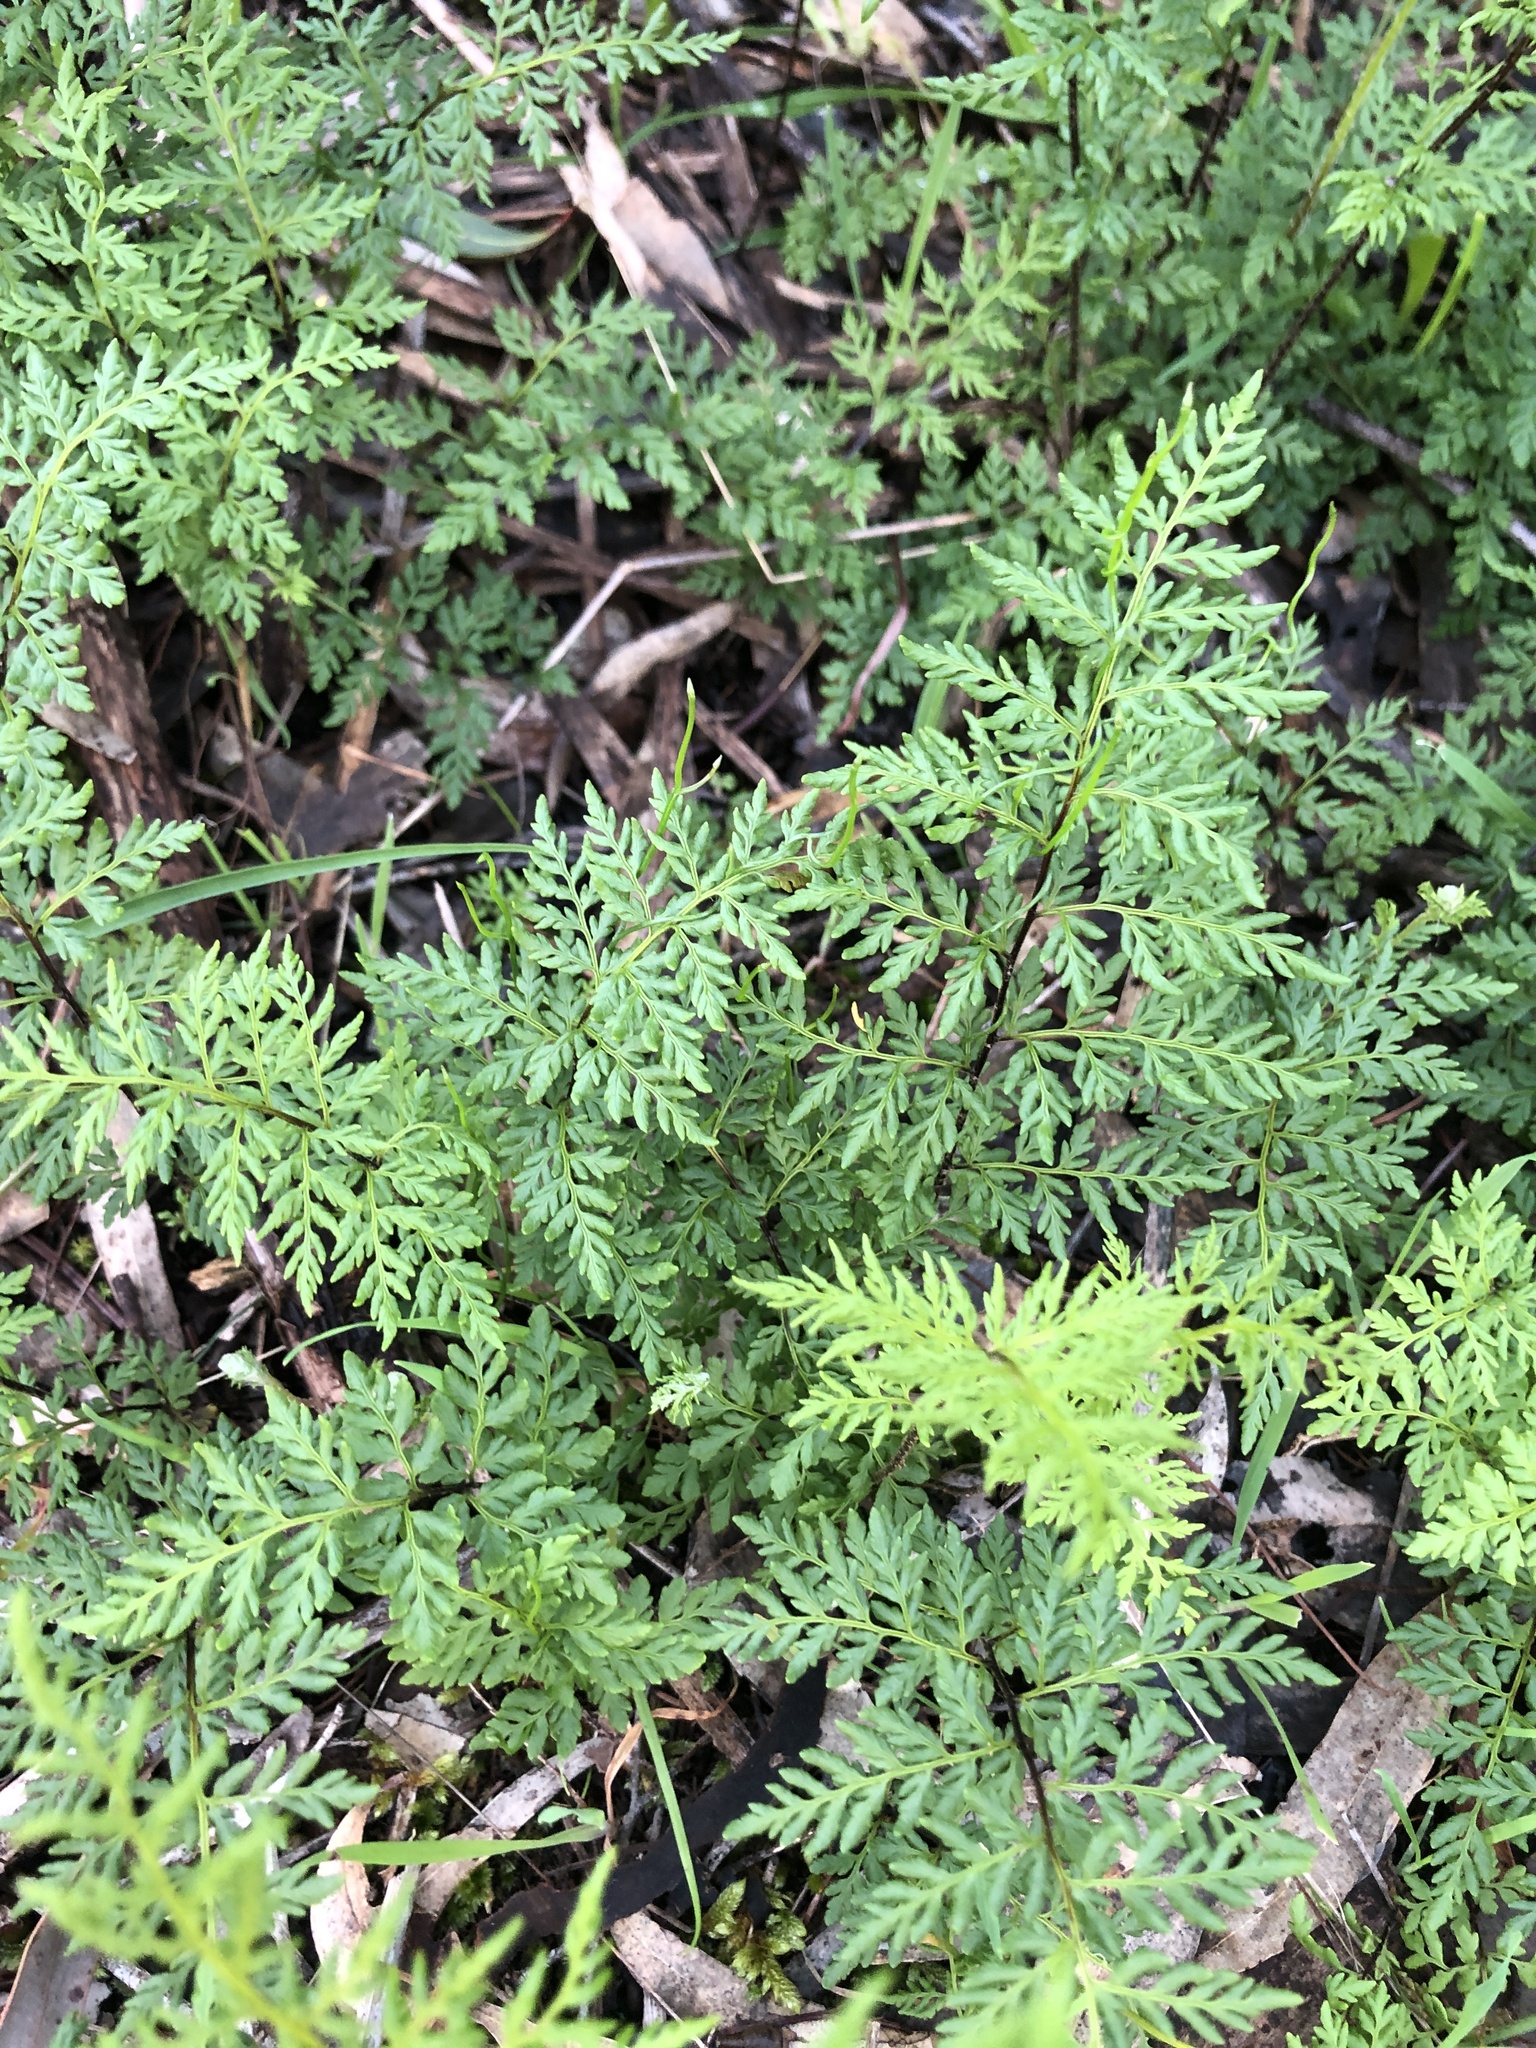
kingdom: Plantae
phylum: Tracheophyta
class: Polypodiopsida
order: Polypodiales
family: Pteridaceae
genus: Cheilanthes
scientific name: Cheilanthes austrotenuifolia
